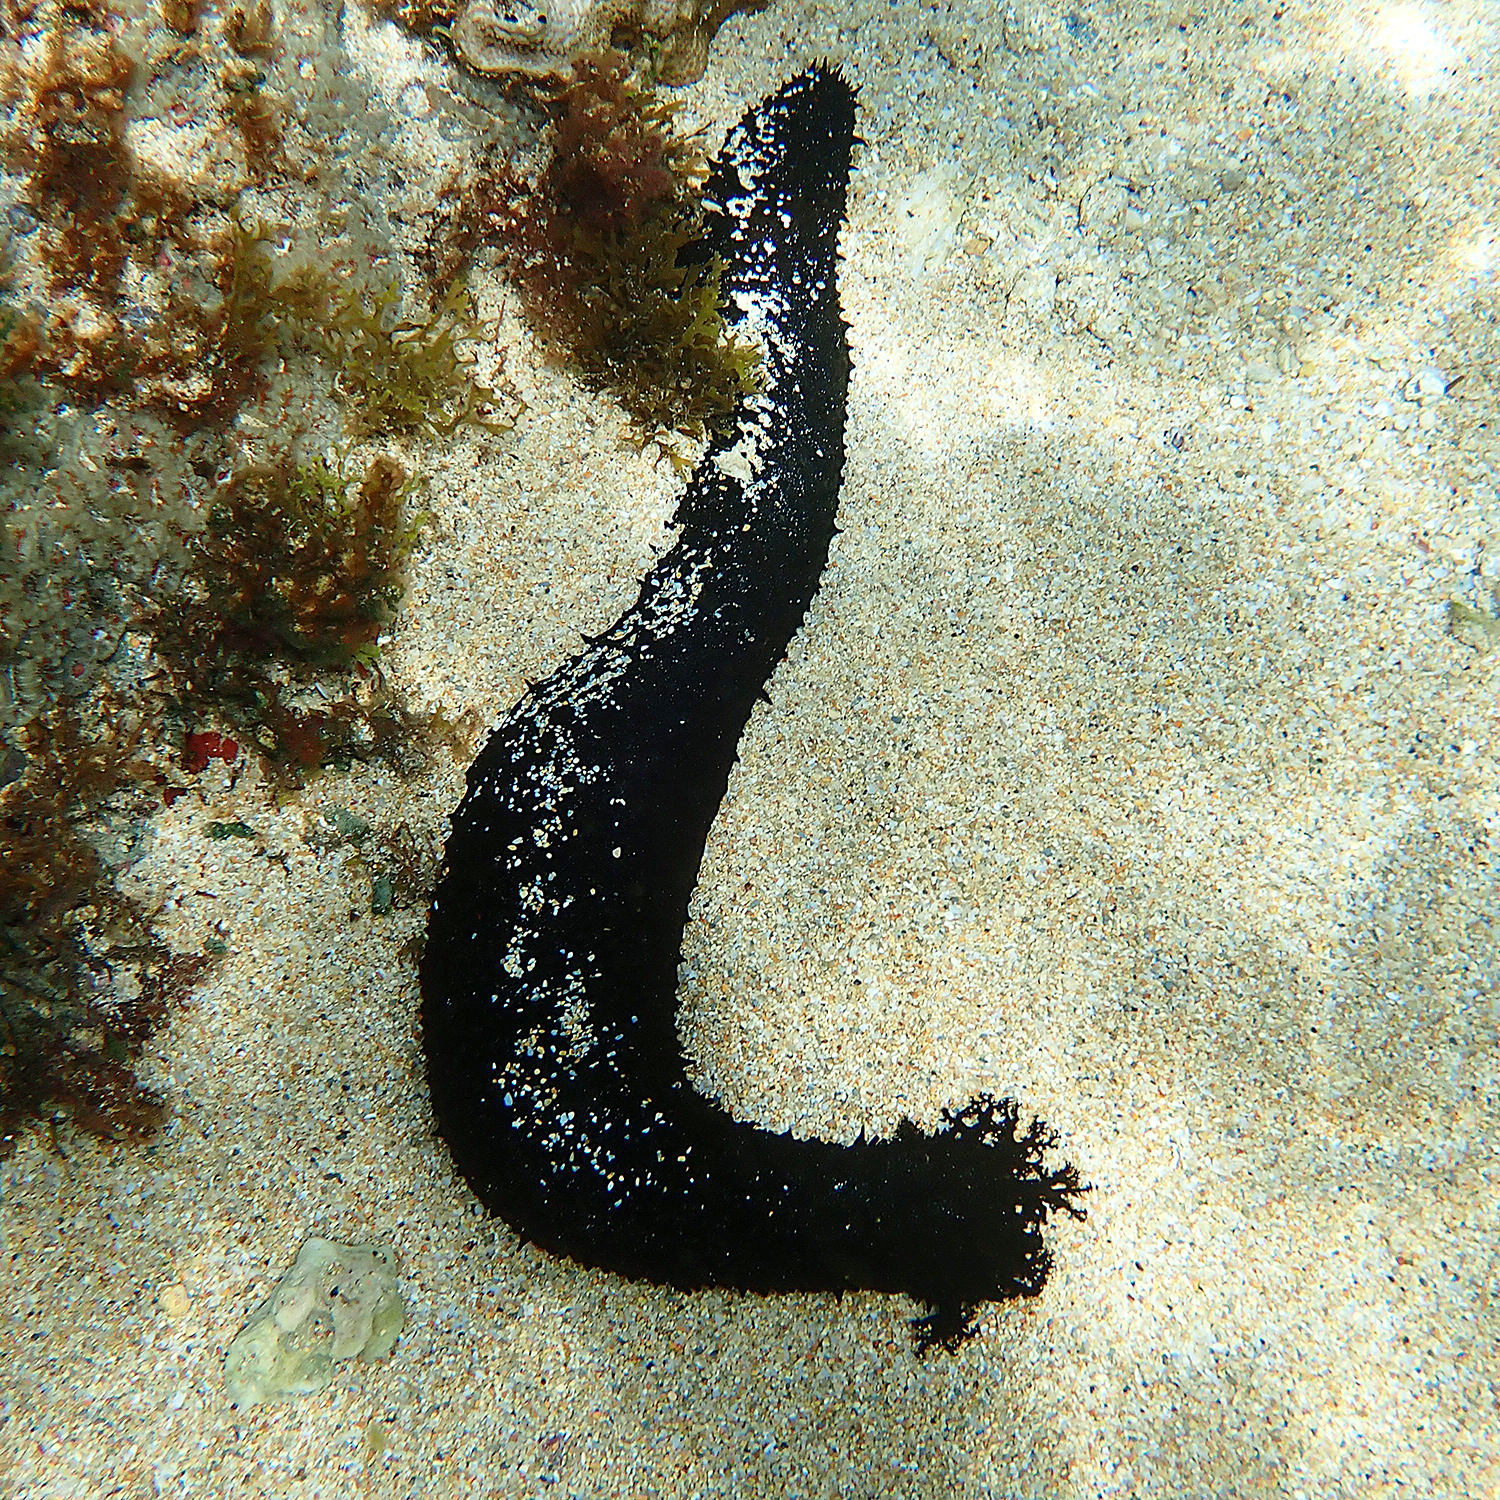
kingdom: Animalia
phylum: Echinodermata
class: Holothuroidea
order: Holothuriida
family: Holothuriidae
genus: Holothuria
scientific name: Holothuria leucospilota
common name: White thread fish
